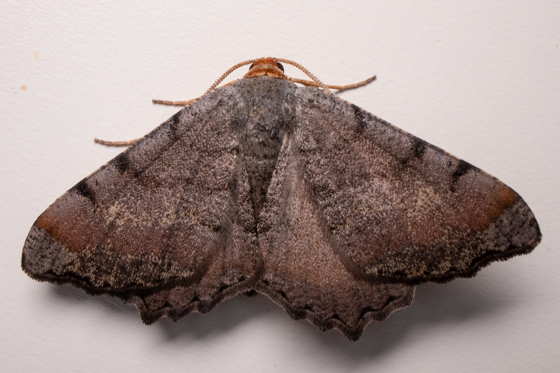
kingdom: Animalia
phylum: Arthropoda
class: Insecta
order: Lepidoptera
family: Geometridae
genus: Macaria
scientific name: Macaria transitaria
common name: Blurry chocolate angle
